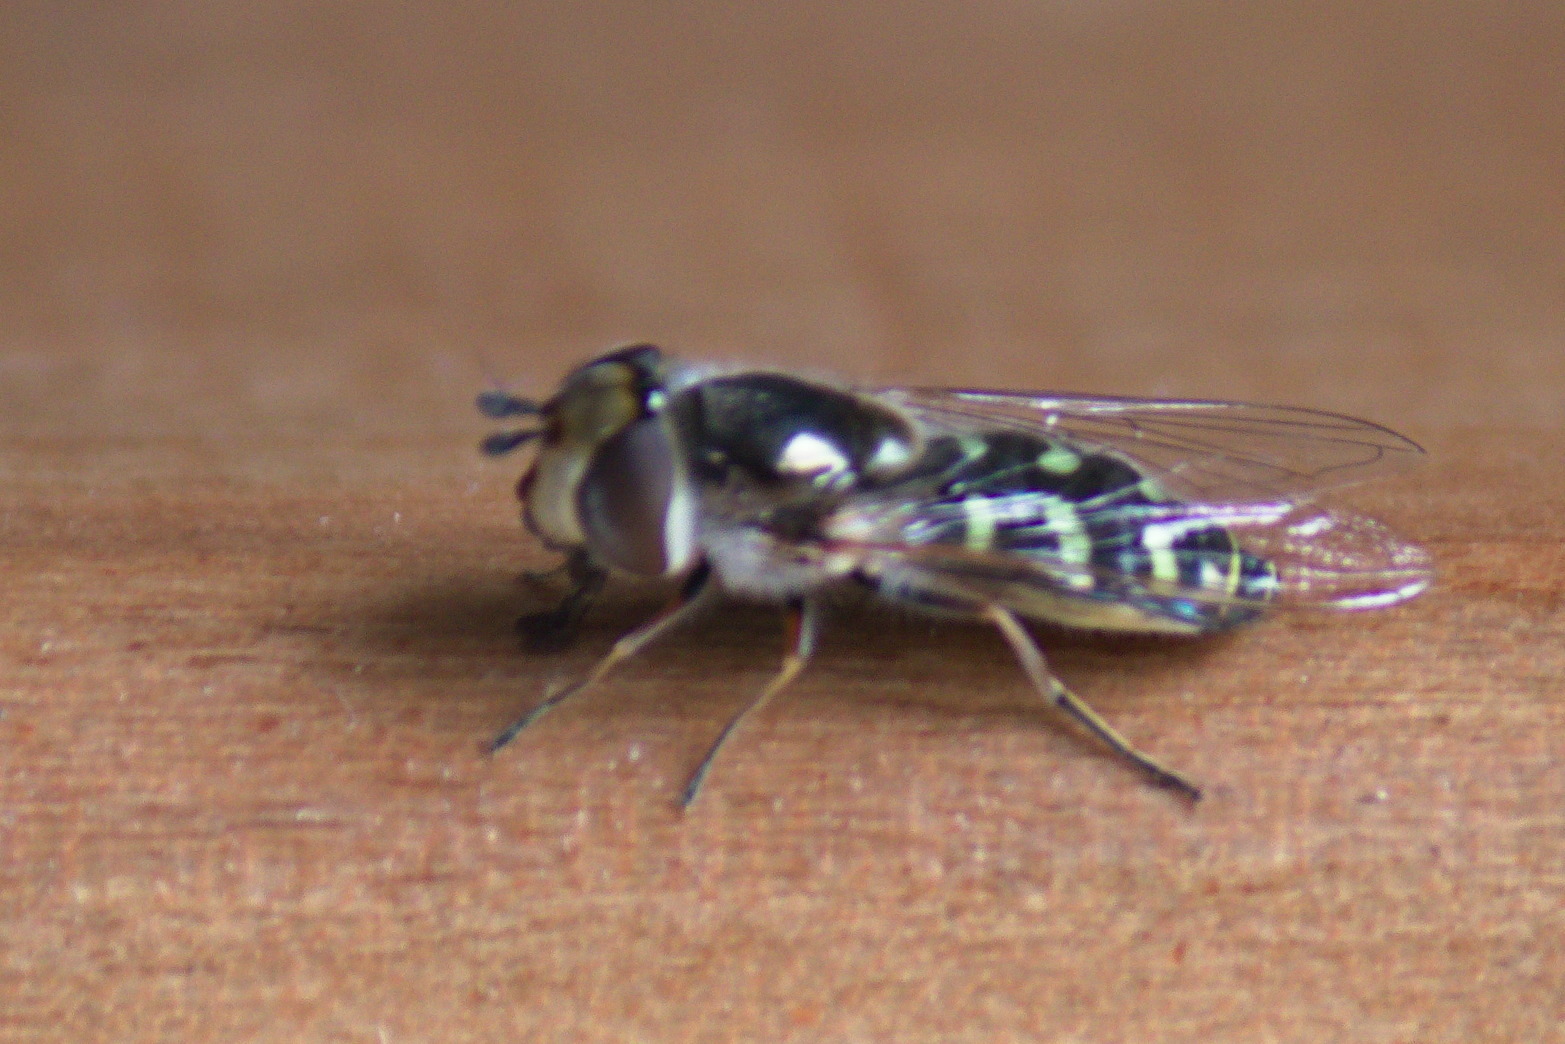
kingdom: Animalia
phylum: Arthropoda
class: Insecta
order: Diptera
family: Syrphidae
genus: Austroscaeva
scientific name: Austroscaeva melanostoma
